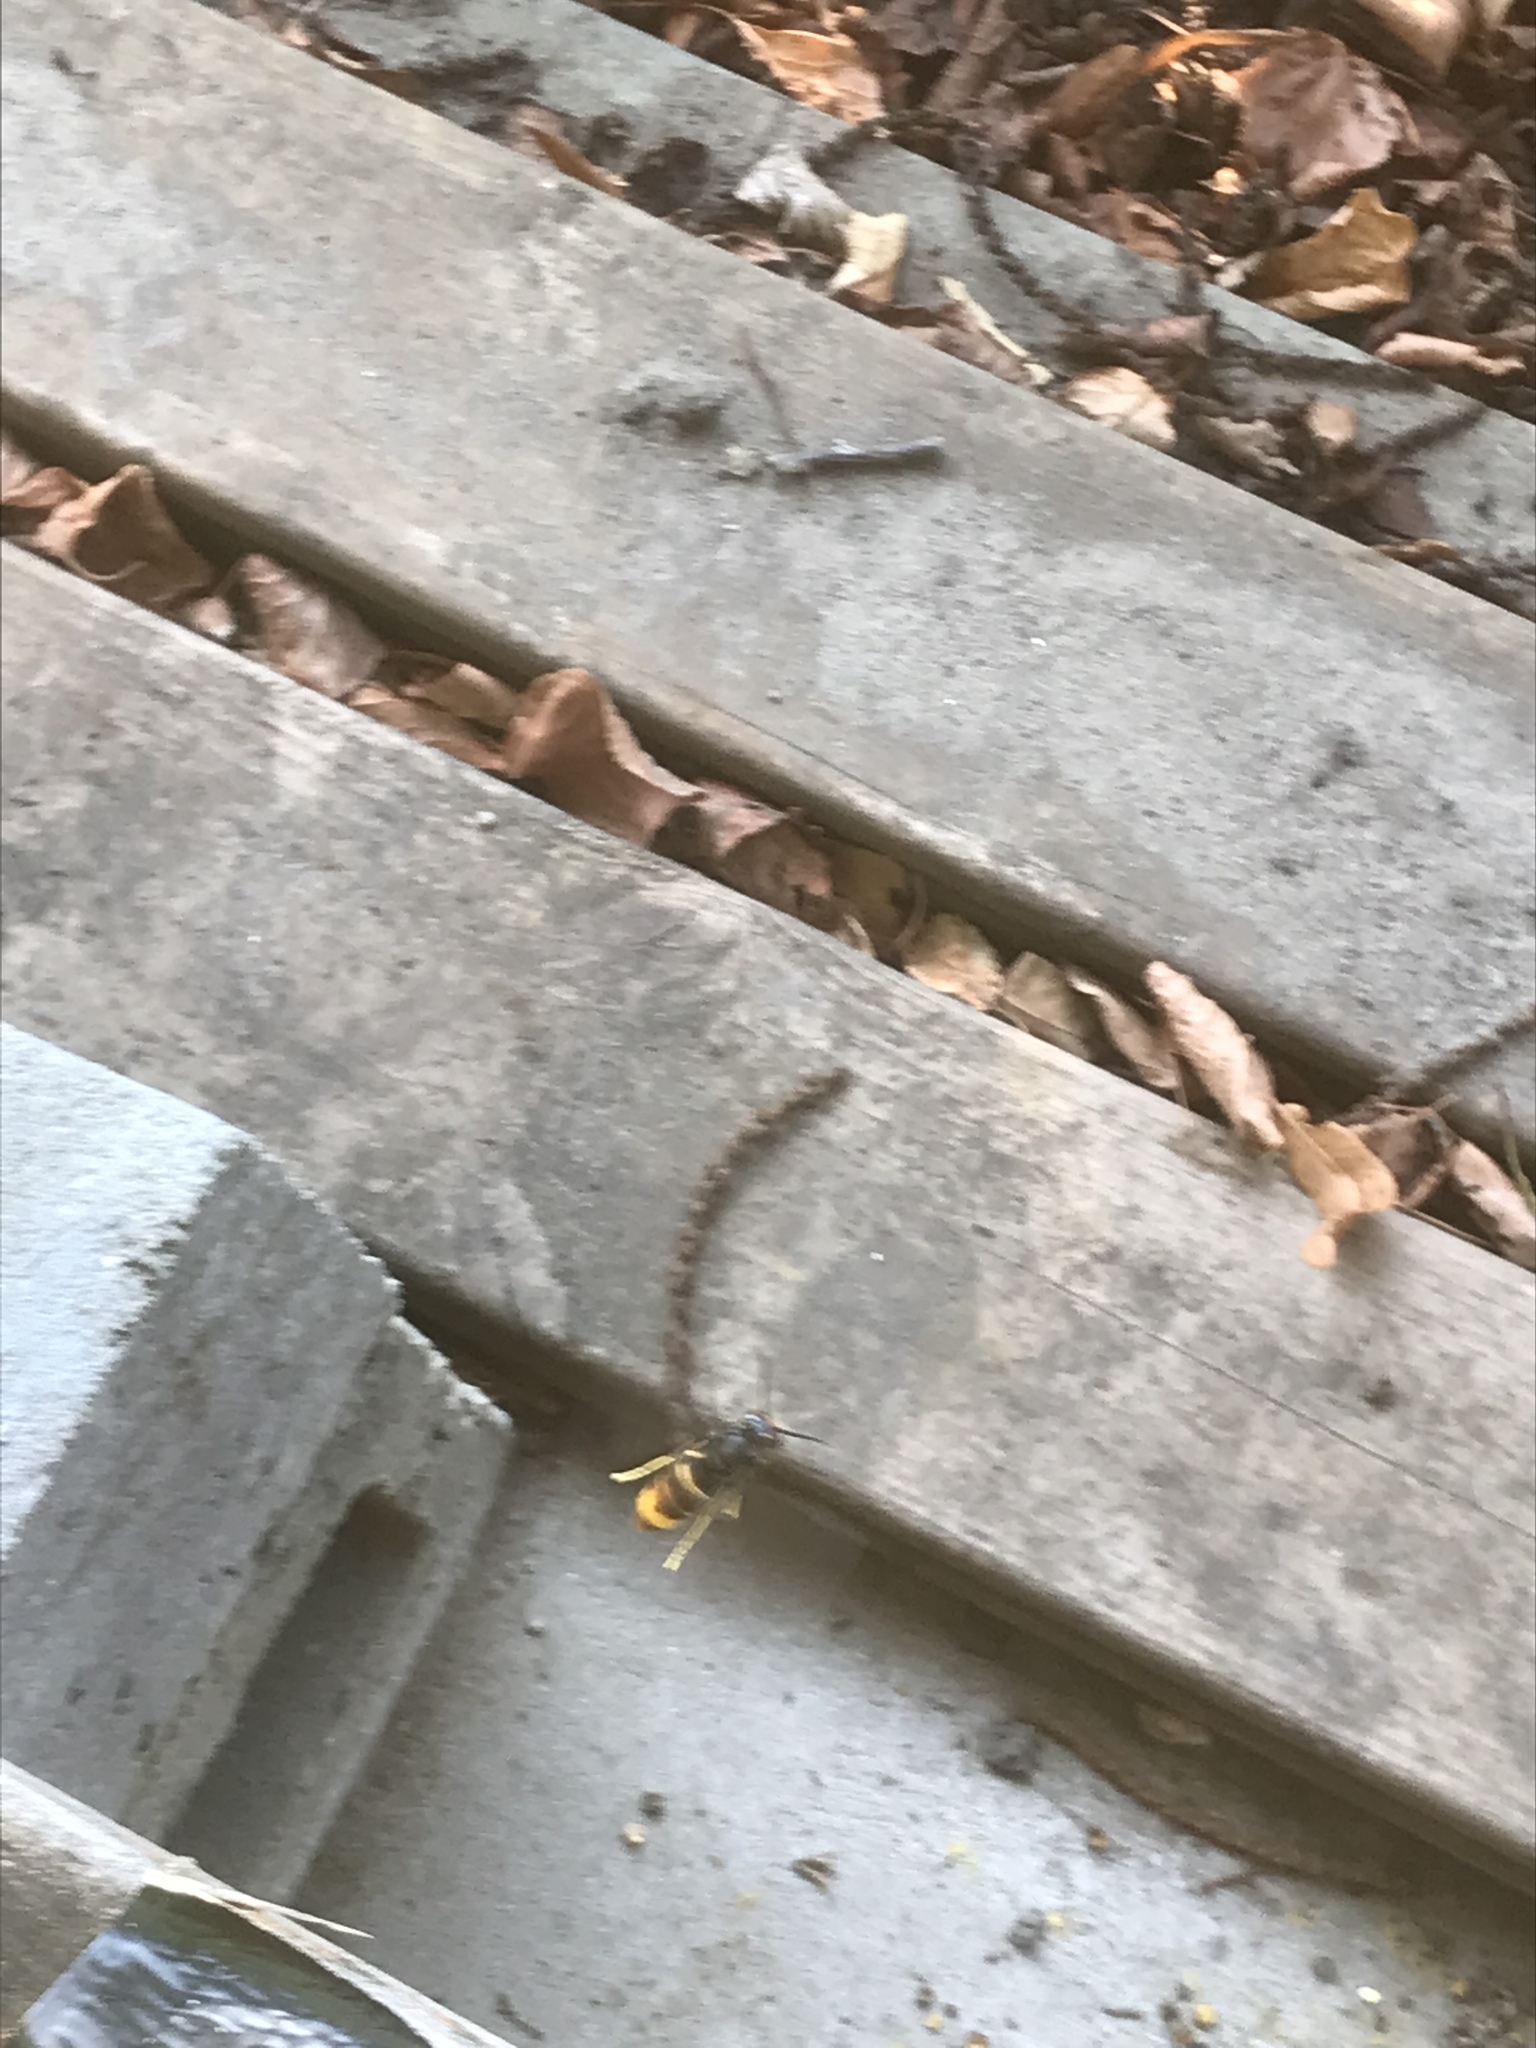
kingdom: Animalia
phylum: Arthropoda
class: Insecta
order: Hymenoptera
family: Vespidae
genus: Vespa
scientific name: Vespa velutina
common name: Asian hornet
